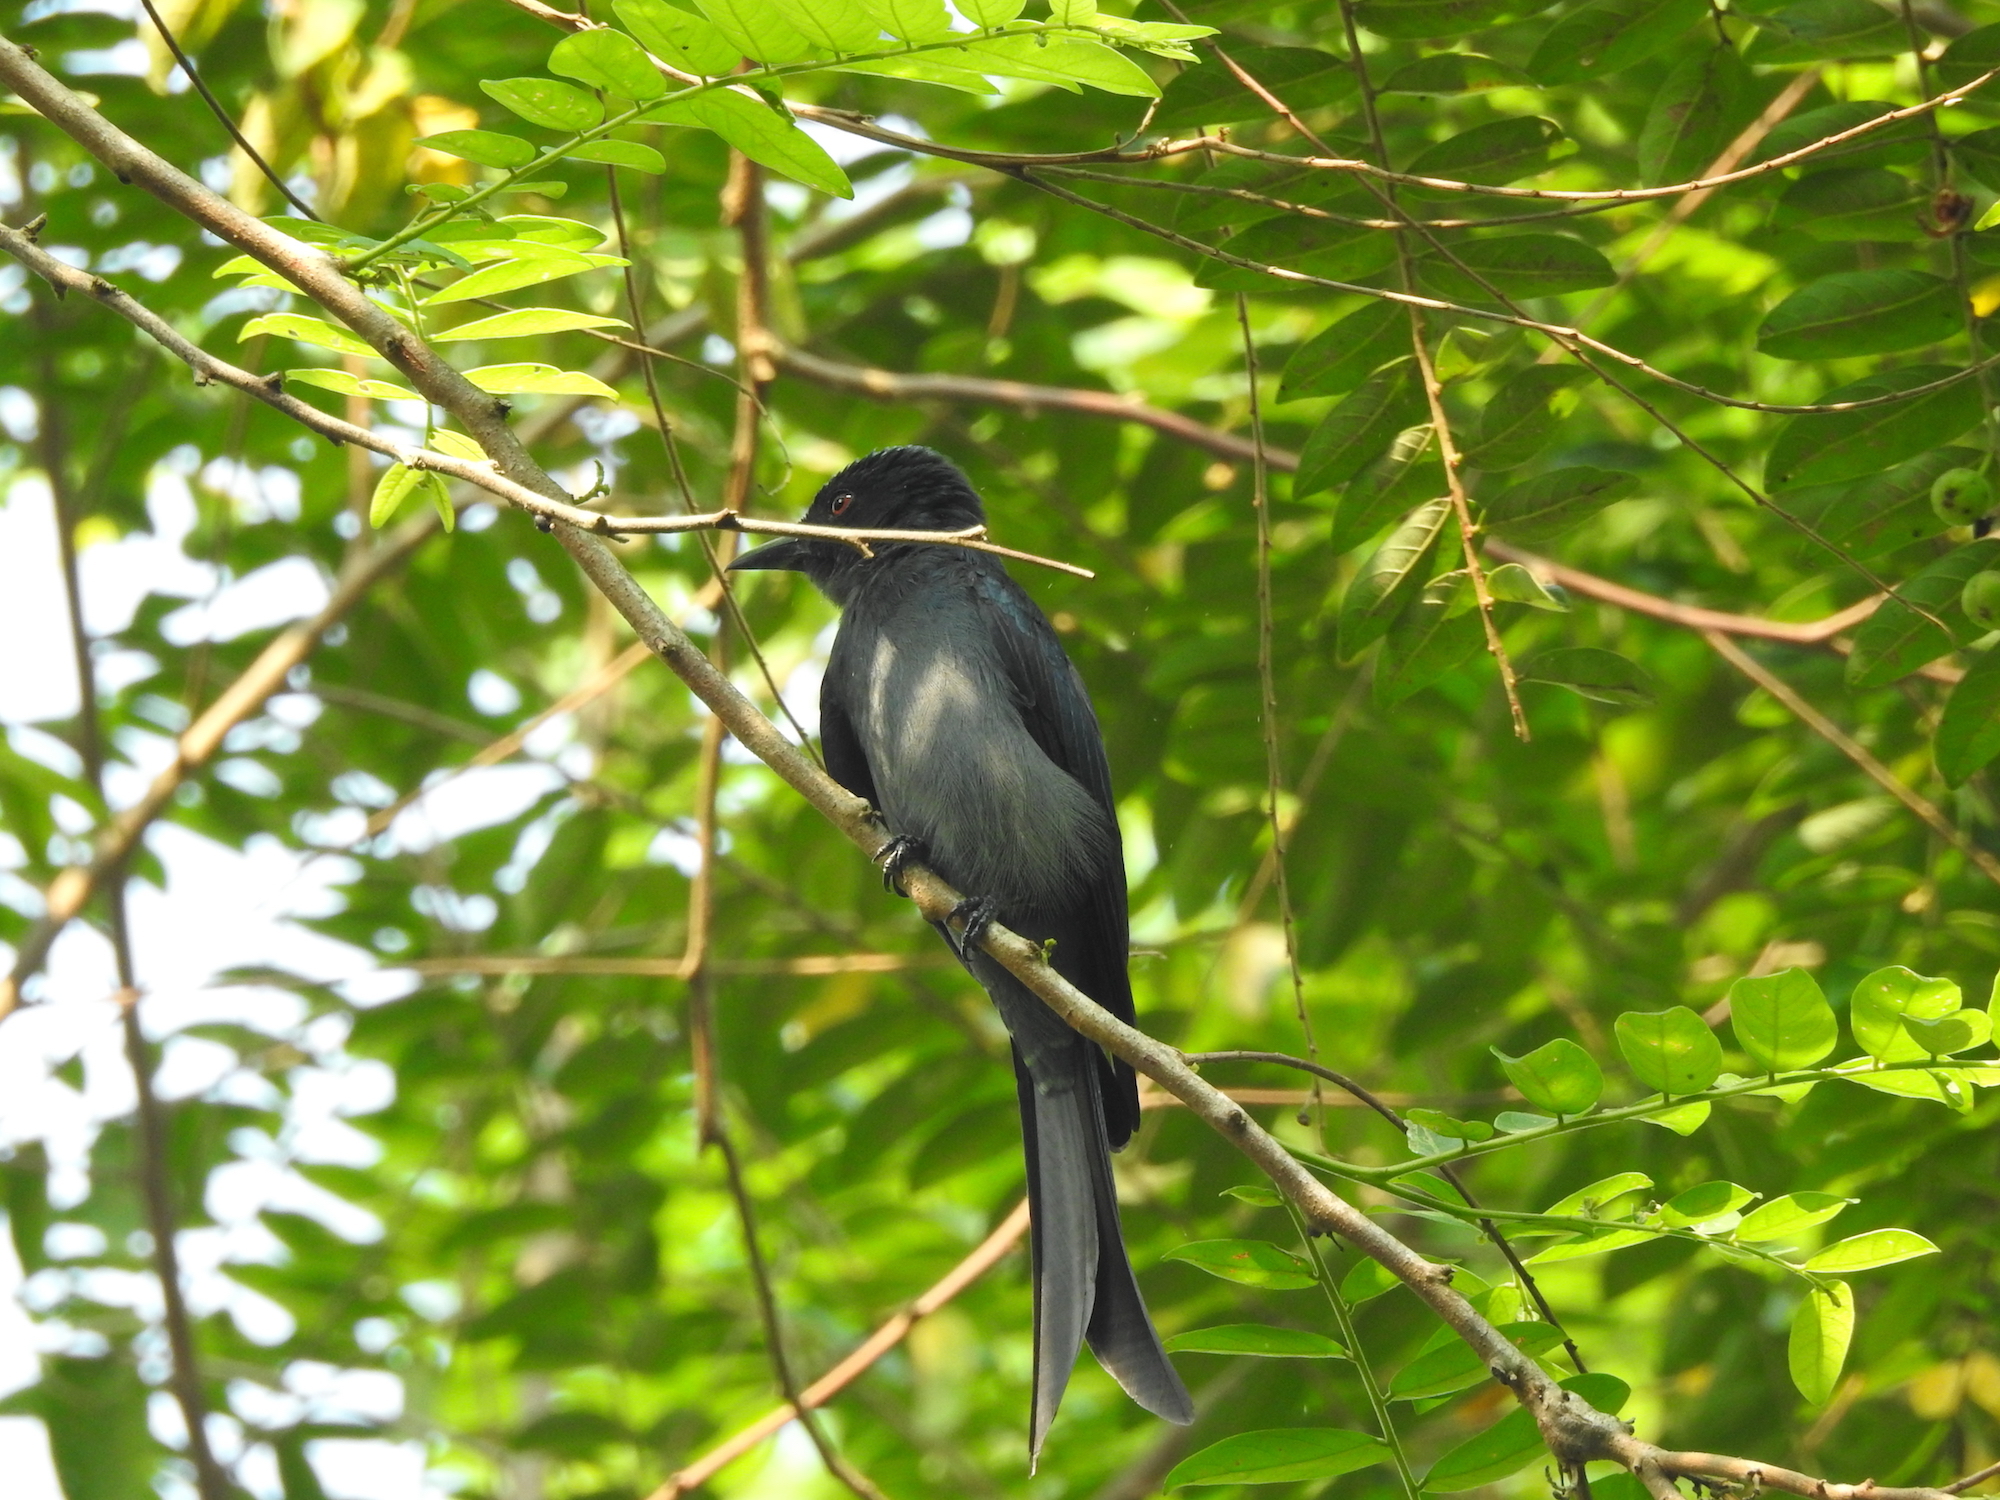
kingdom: Animalia
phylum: Chordata
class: Aves
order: Passeriformes
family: Dicruridae
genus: Dicrurus
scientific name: Dicrurus leucophaeus
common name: Ashy drongo
